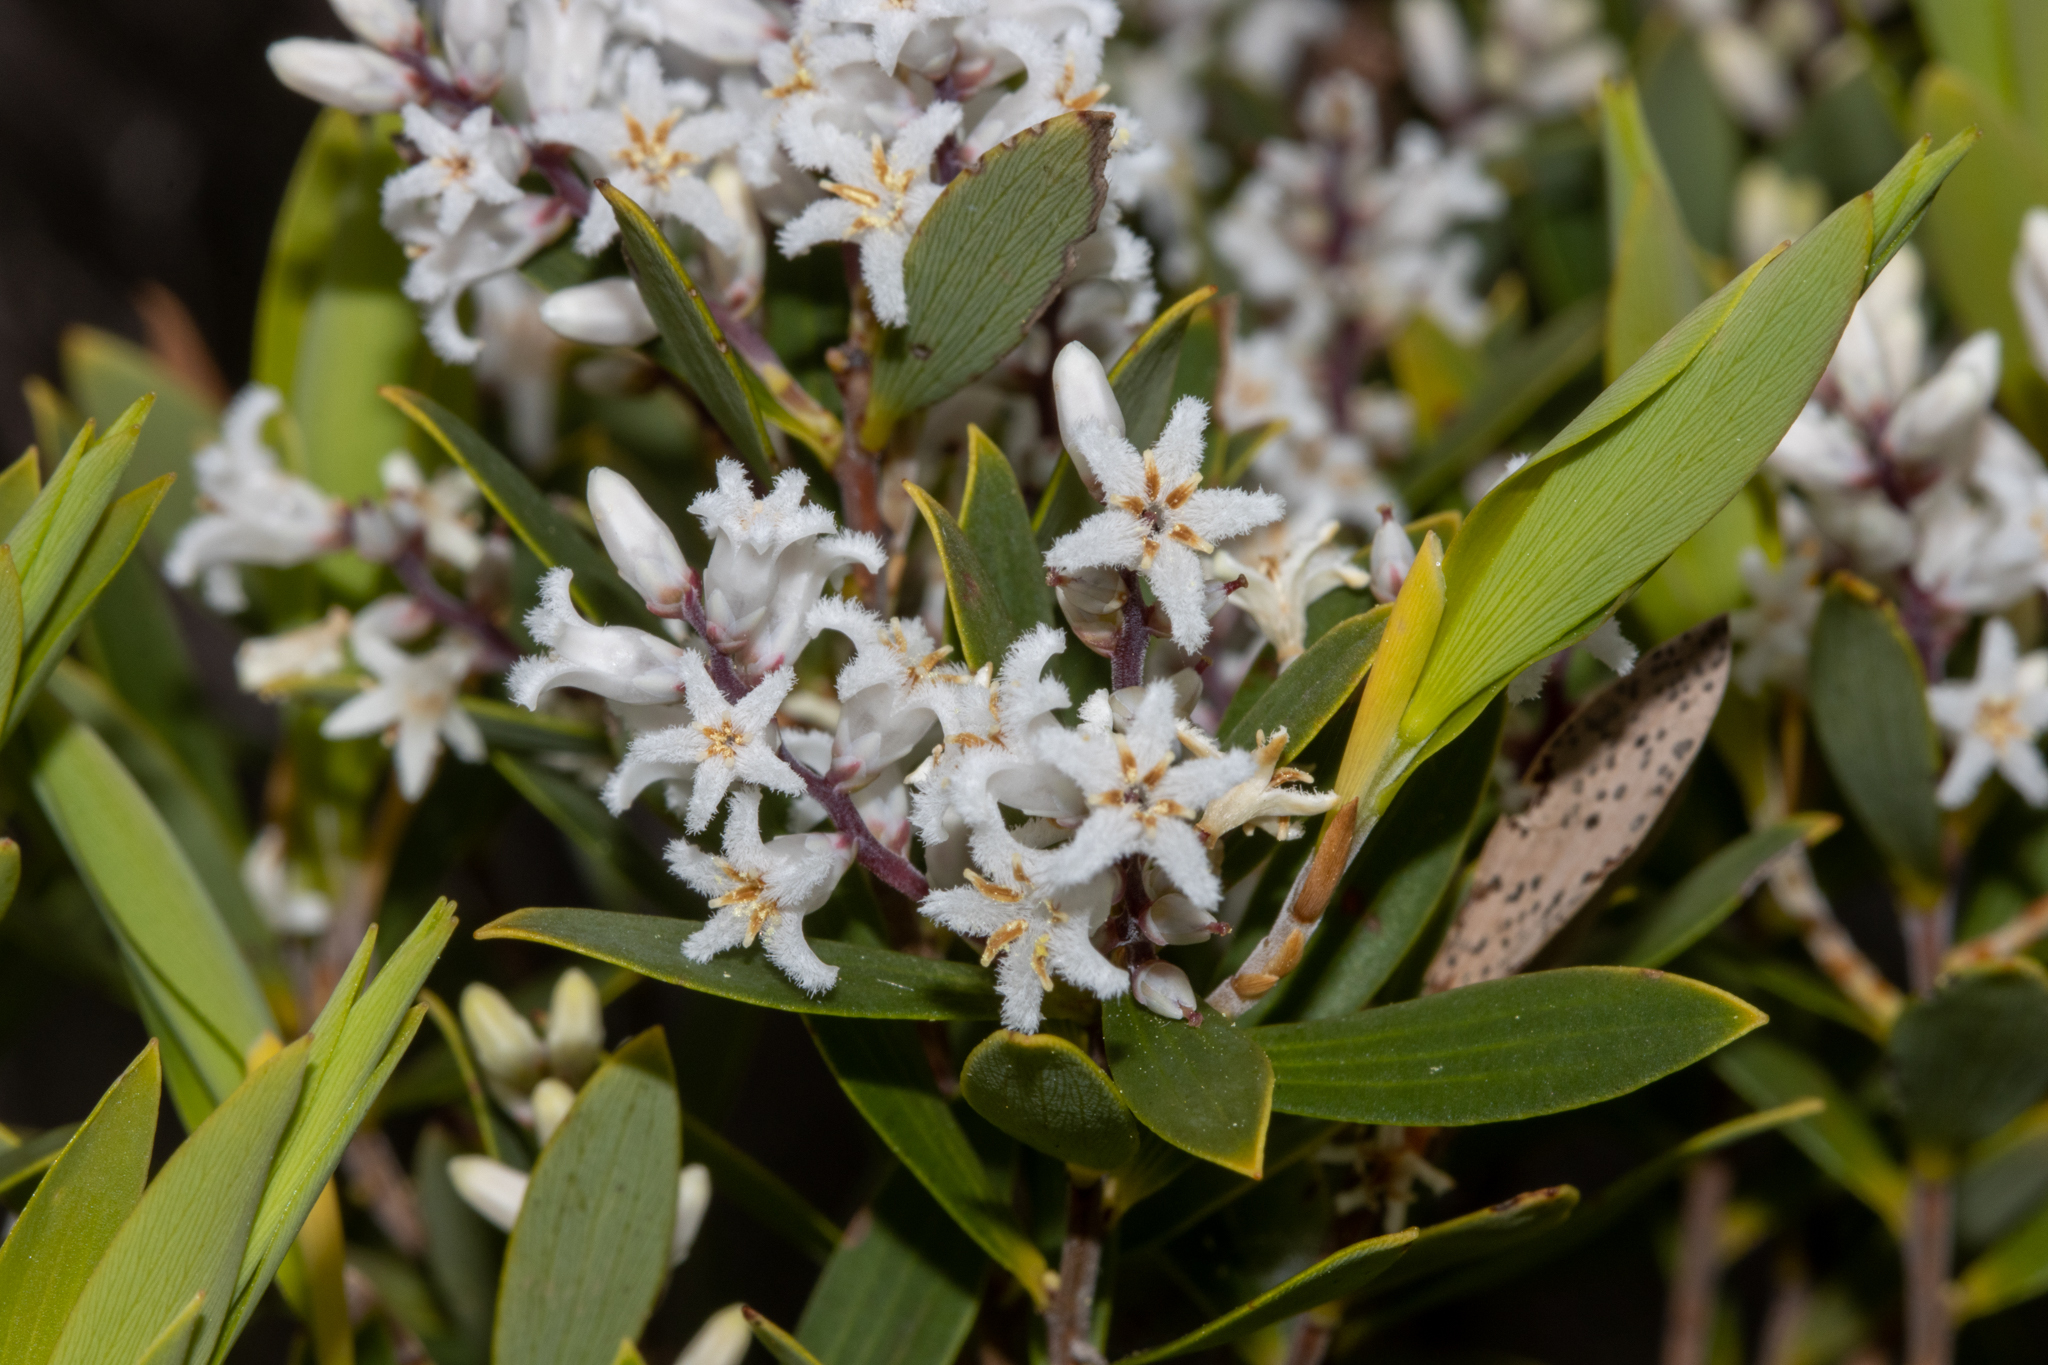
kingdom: Plantae
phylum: Tracheophyta
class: Magnoliopsida
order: Ericales
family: Ericaceae
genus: Leptecophylla
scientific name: Leptecophylla parvifolia
